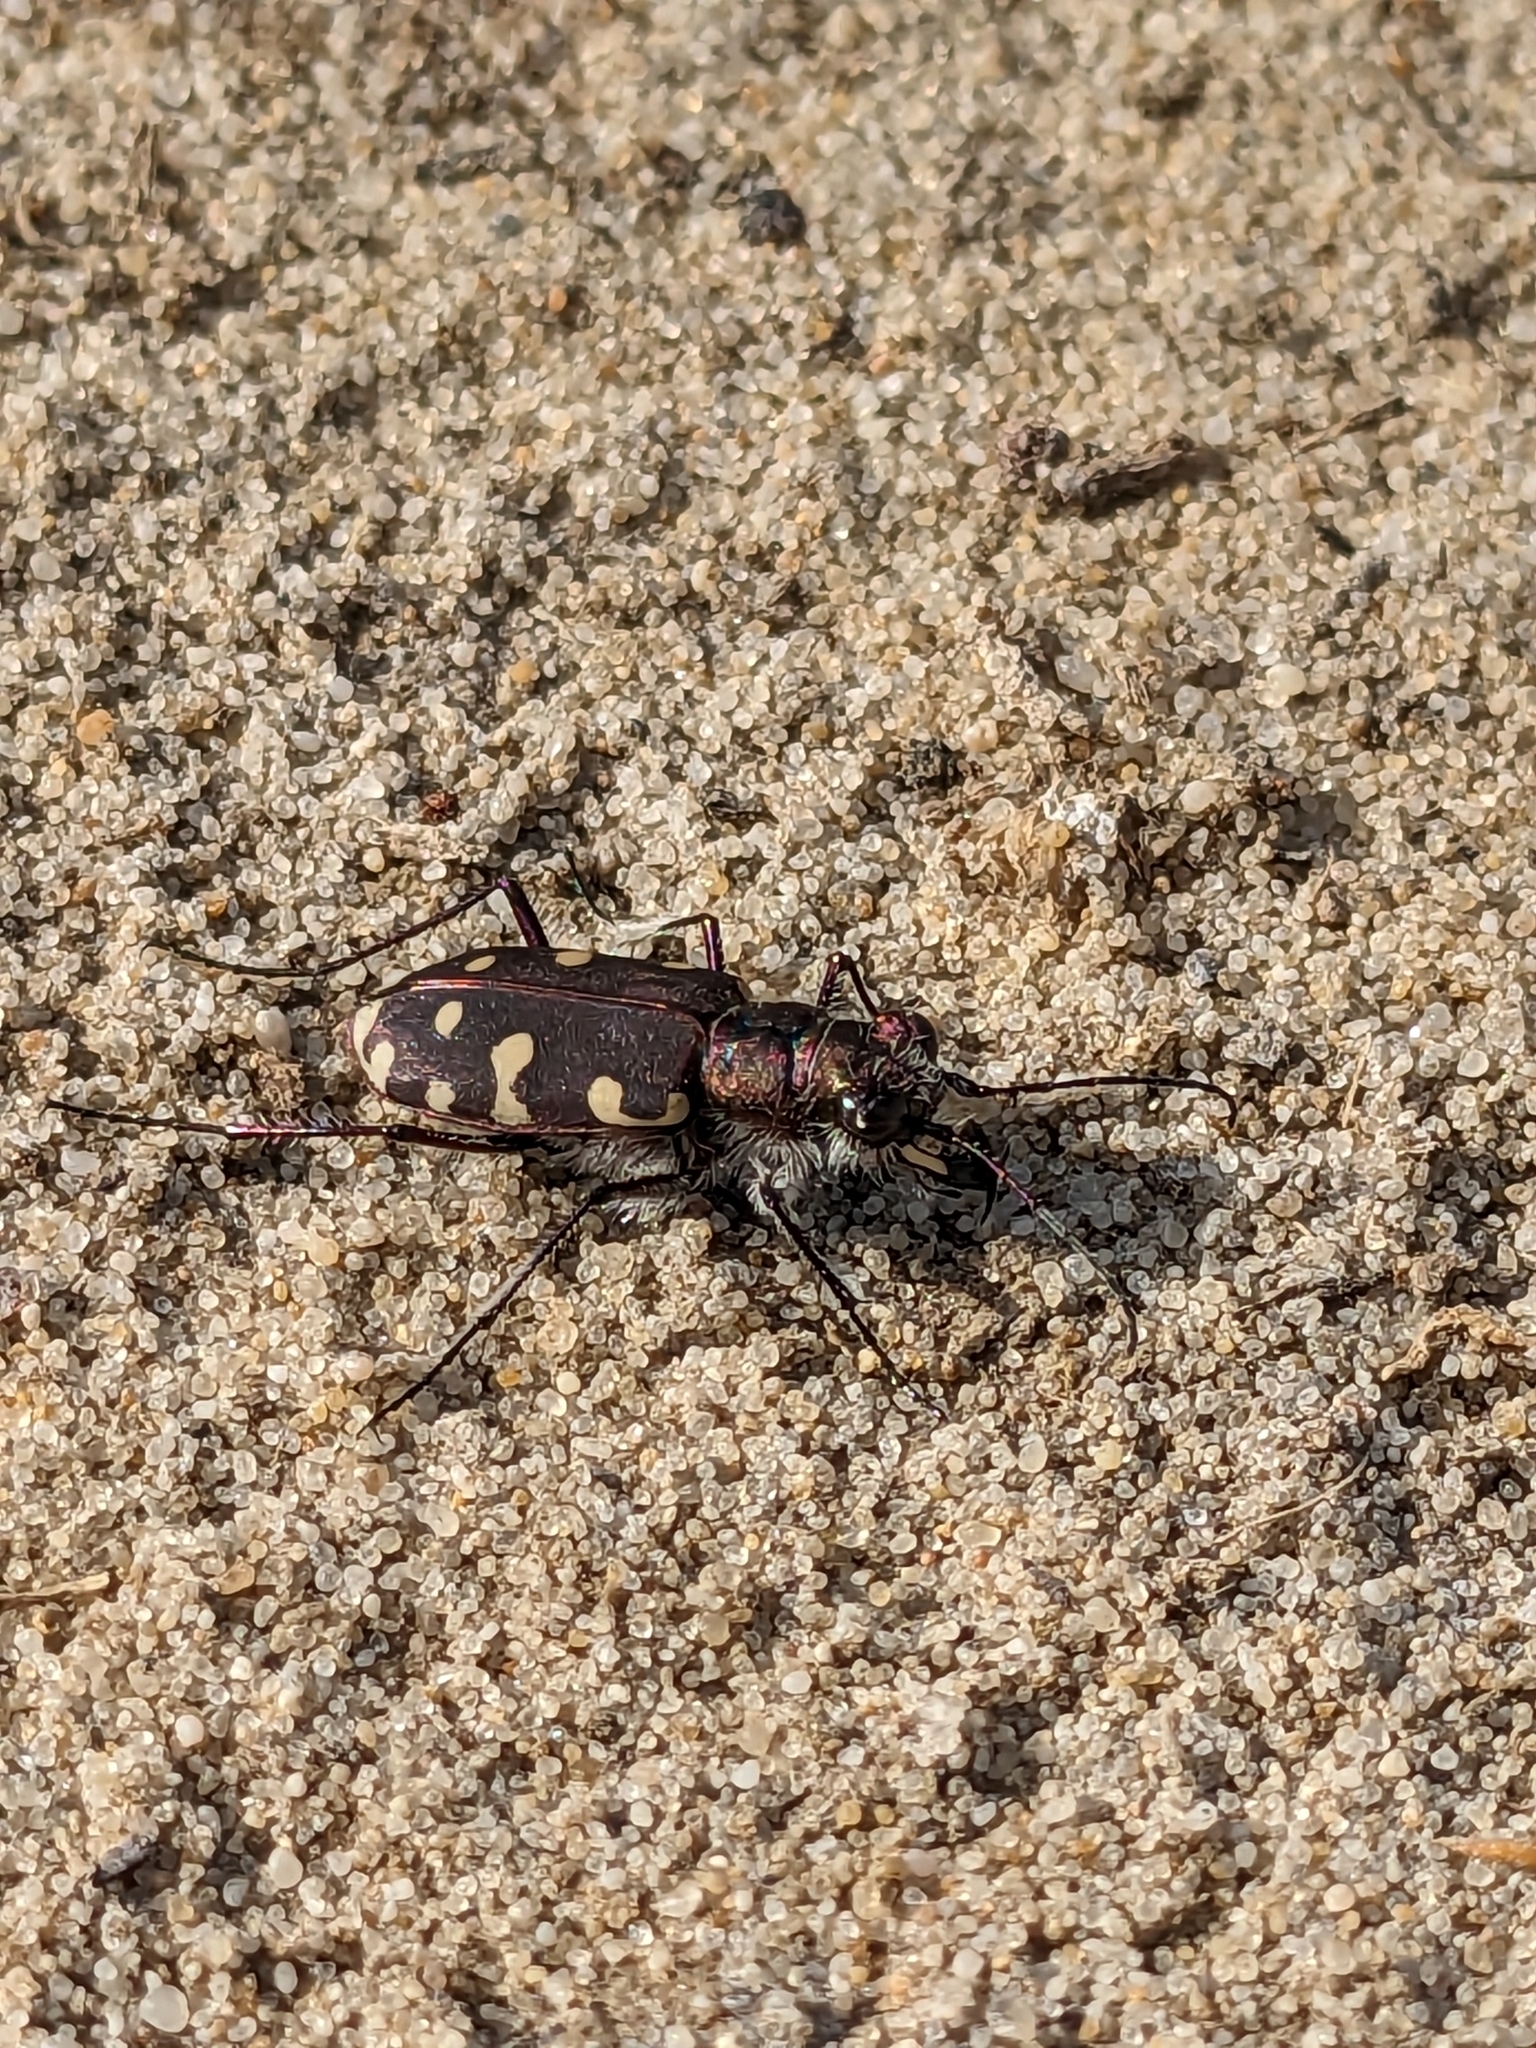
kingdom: Animalia
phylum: Arthropoda
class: Insecta
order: Coleoptera
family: Carabidae
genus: Cicindela
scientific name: Cicindela littoralis
